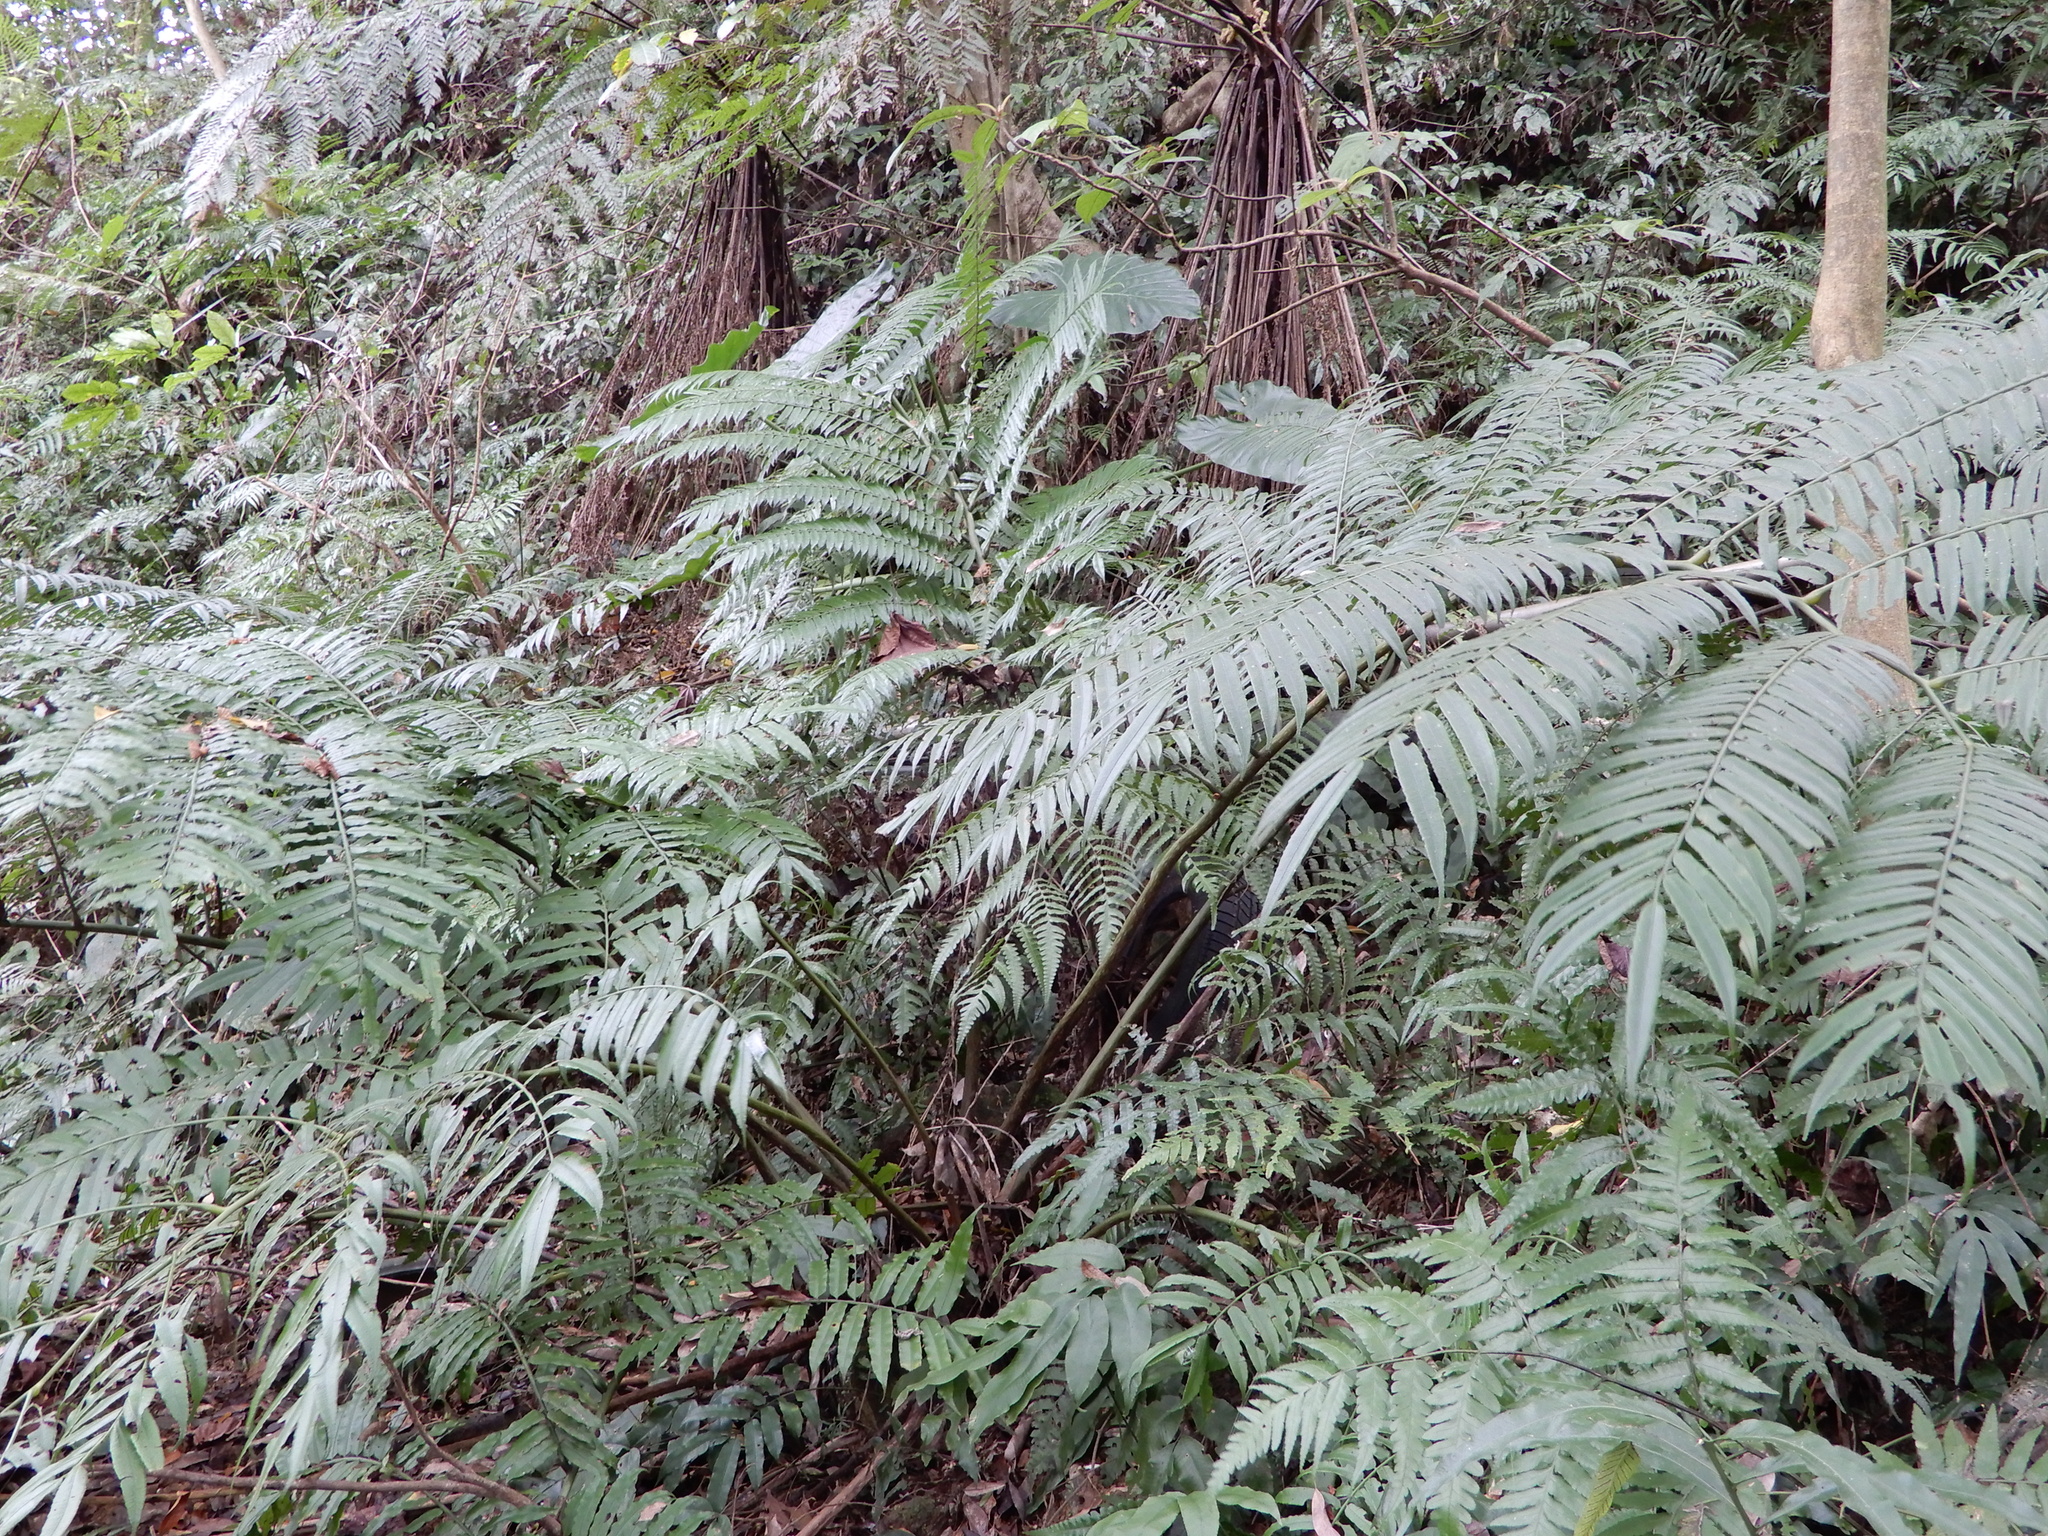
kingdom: Plantae
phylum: Tracheophyta
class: Polypodiopsida
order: Marattiales
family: Marattiaceae
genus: Angiopteris
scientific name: Angiopteris lygodiifolia
